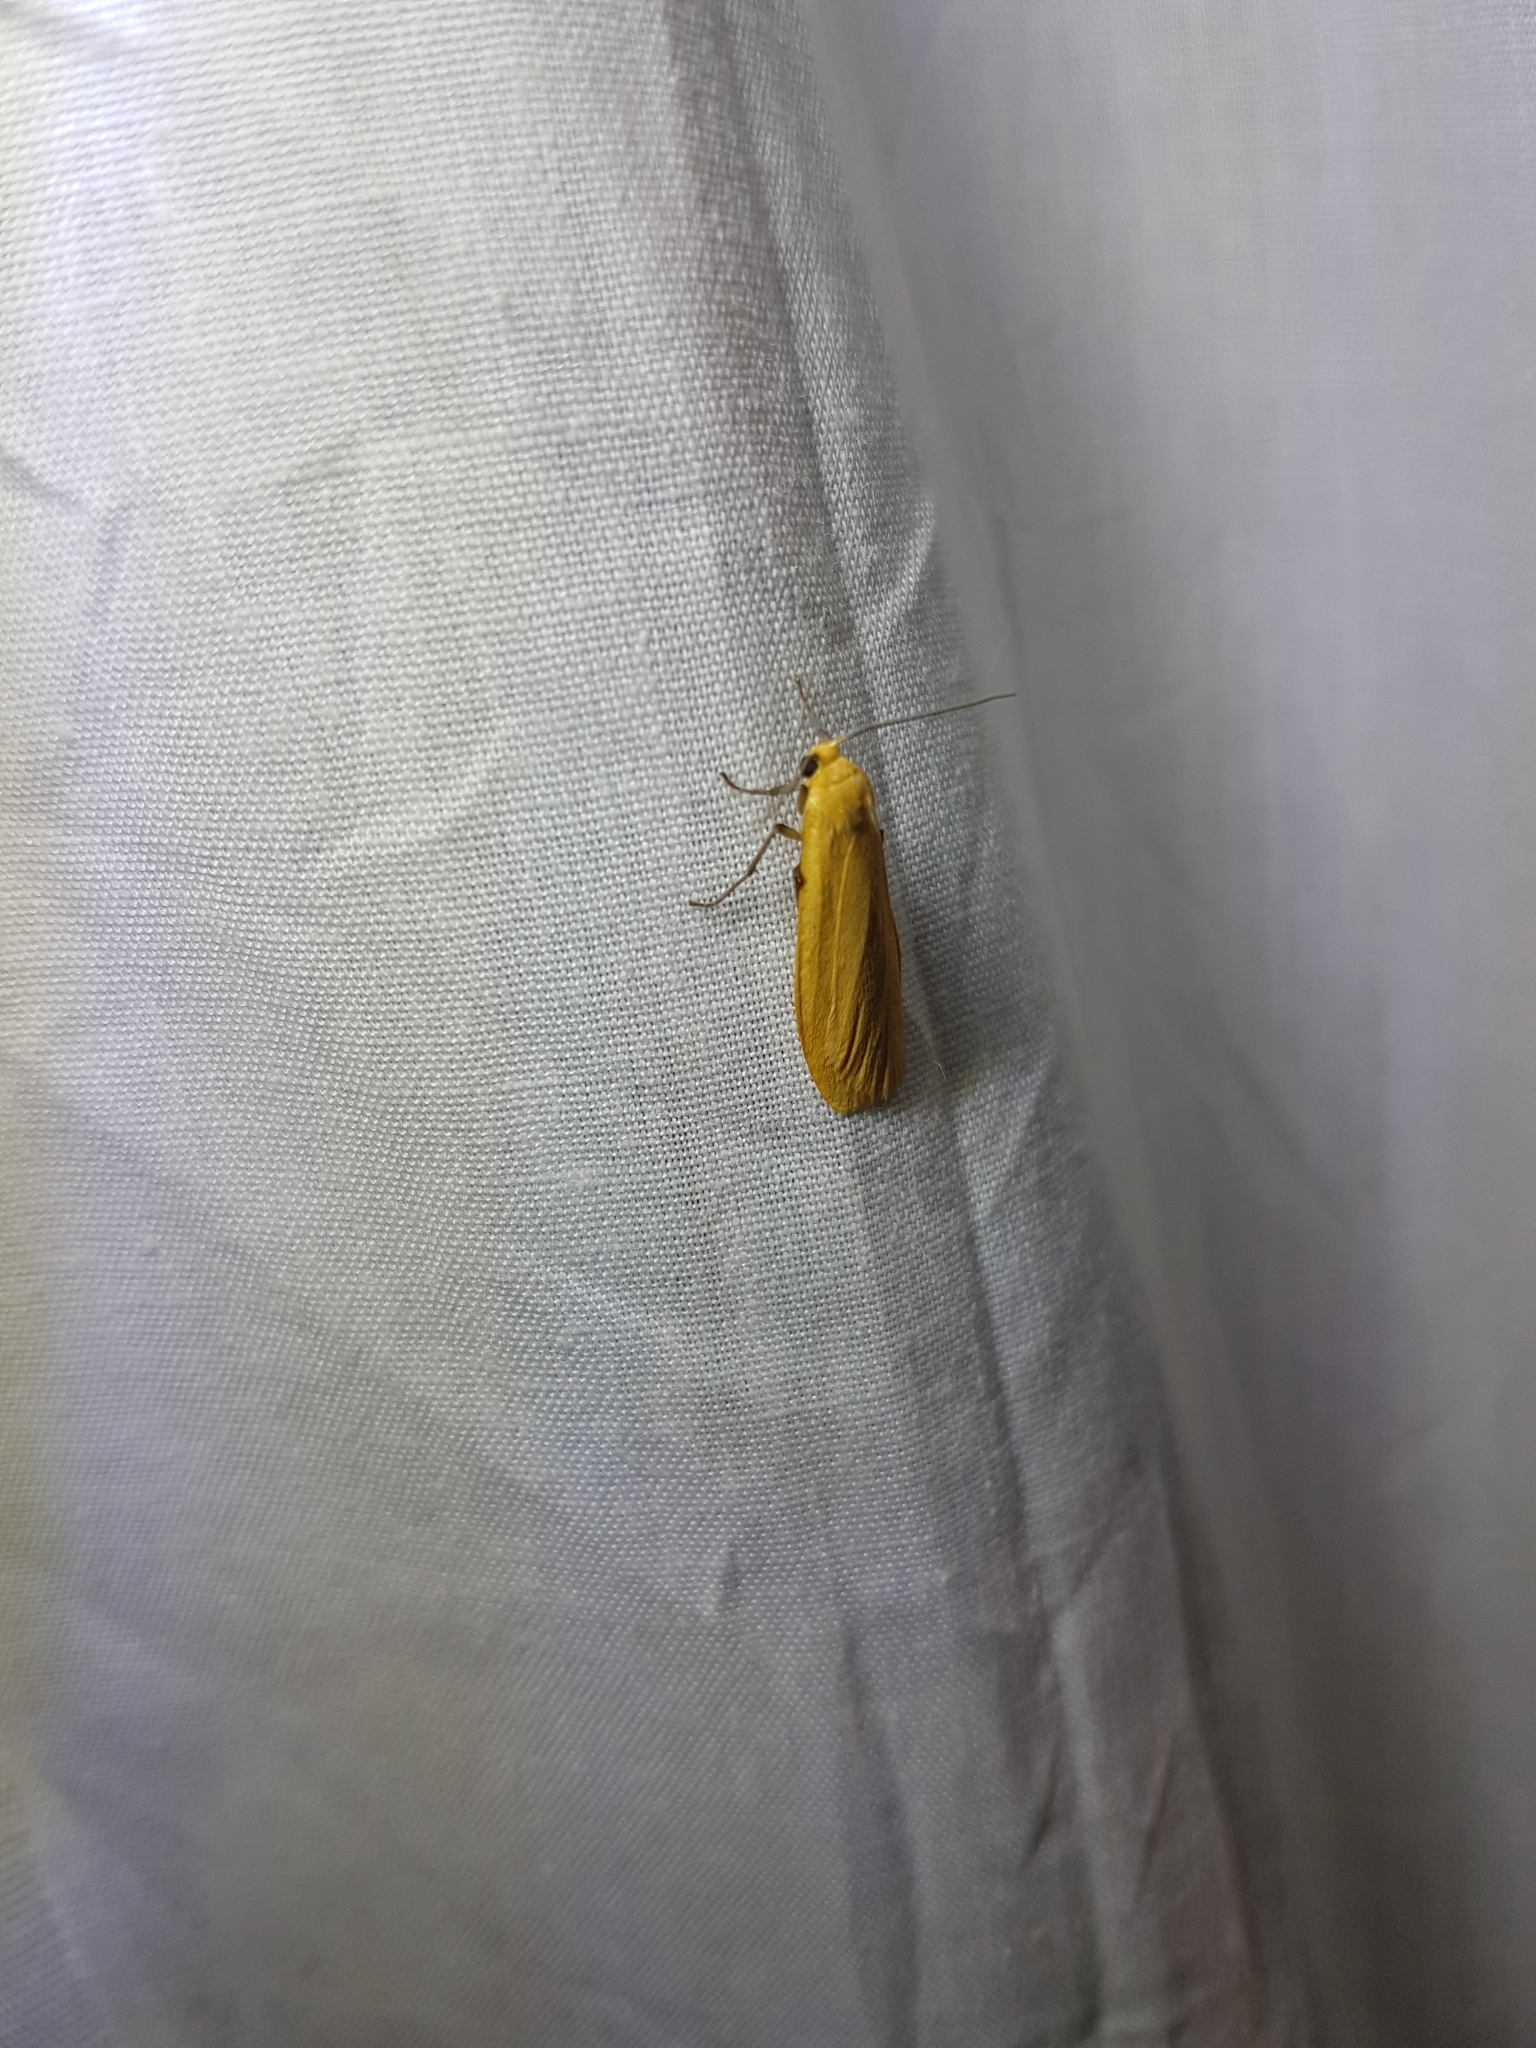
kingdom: Animalia
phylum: Arthropoda
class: Insecta
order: Lepidoptera
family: Erebidae
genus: Wittia
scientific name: Wittia sororcula
